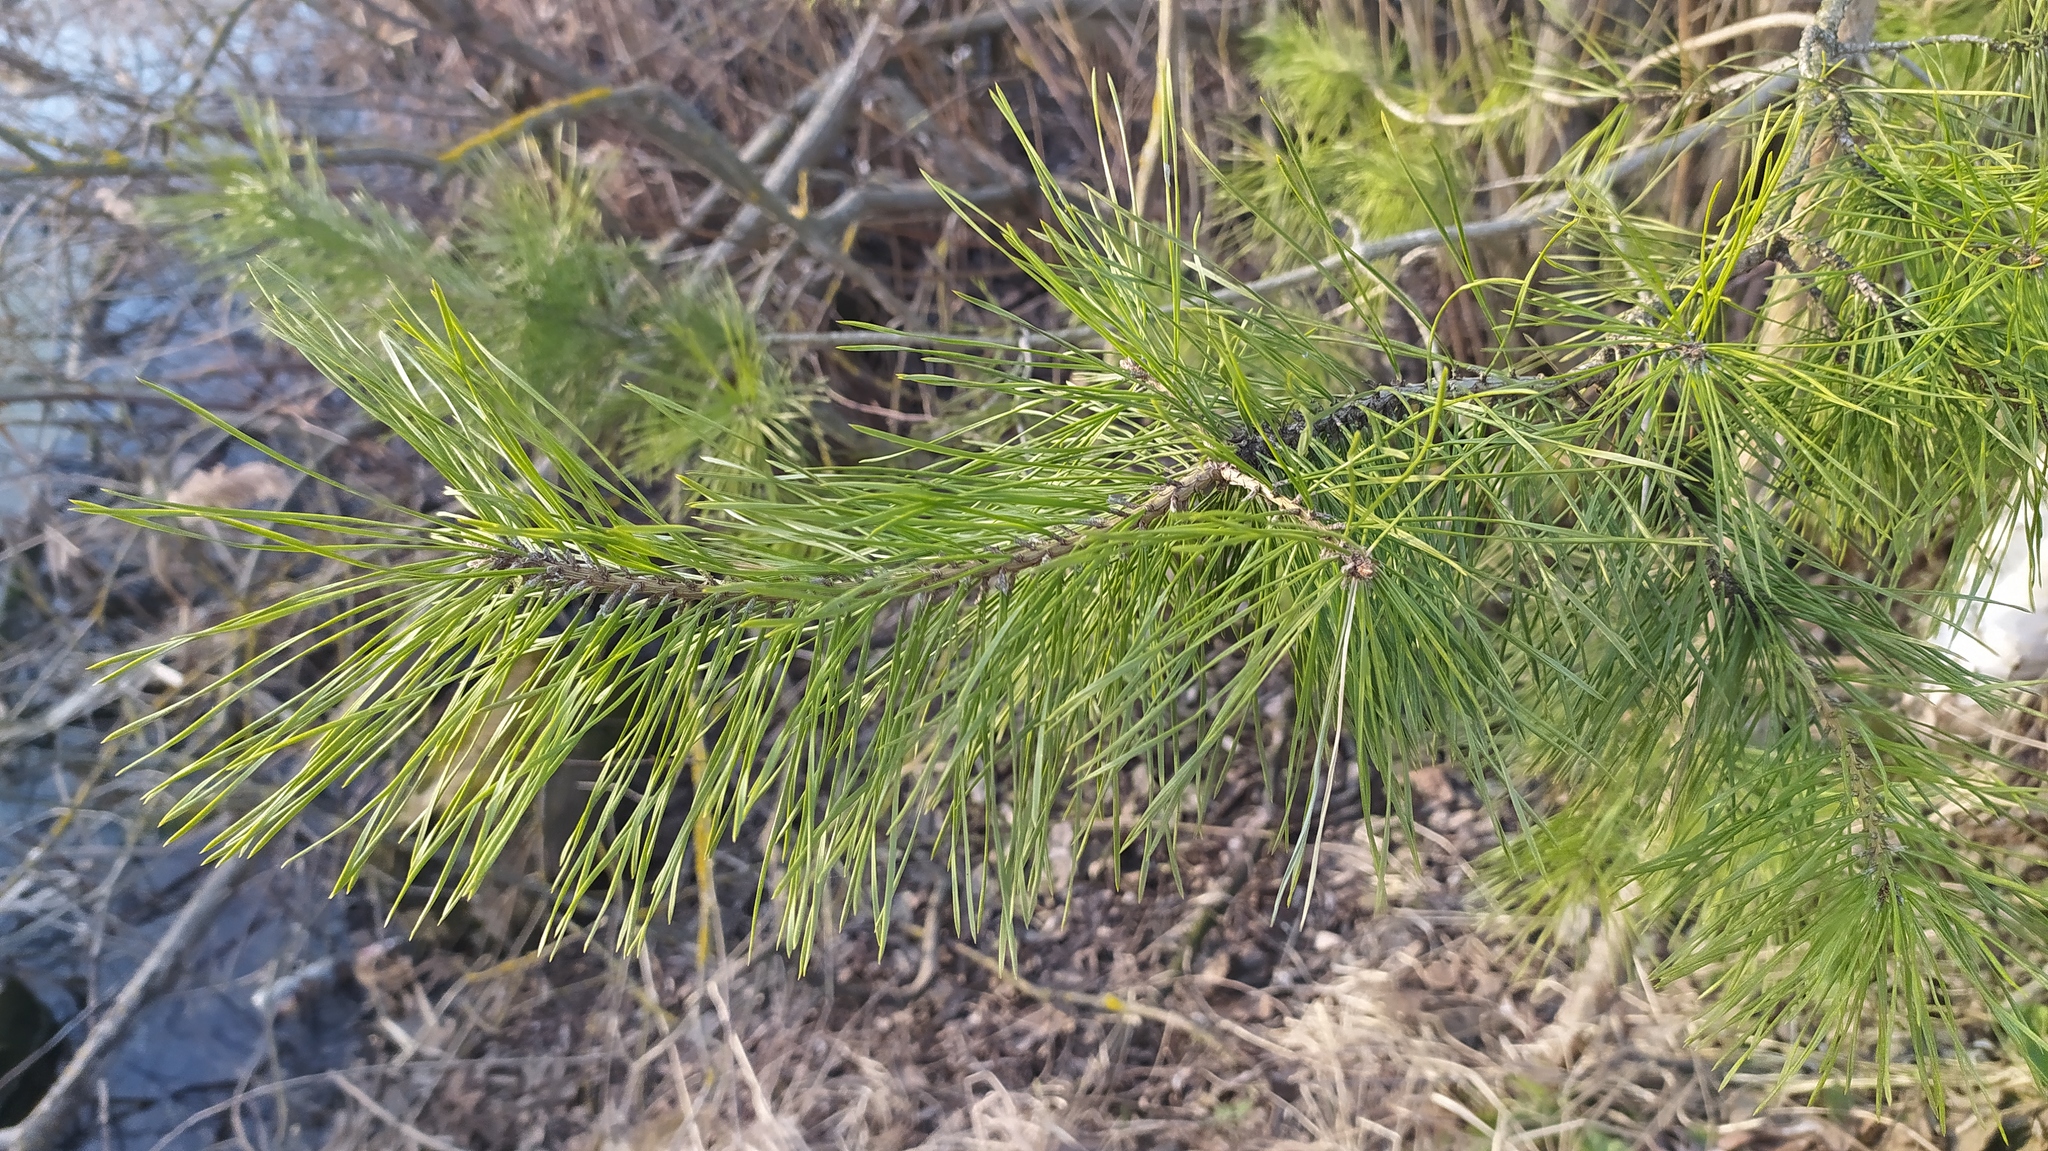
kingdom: Plantae
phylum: Tracheophyta
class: Pinopsida
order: Pinales
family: Pinaceae
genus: Pinus
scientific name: Pinus sylvestris
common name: Scots pine
